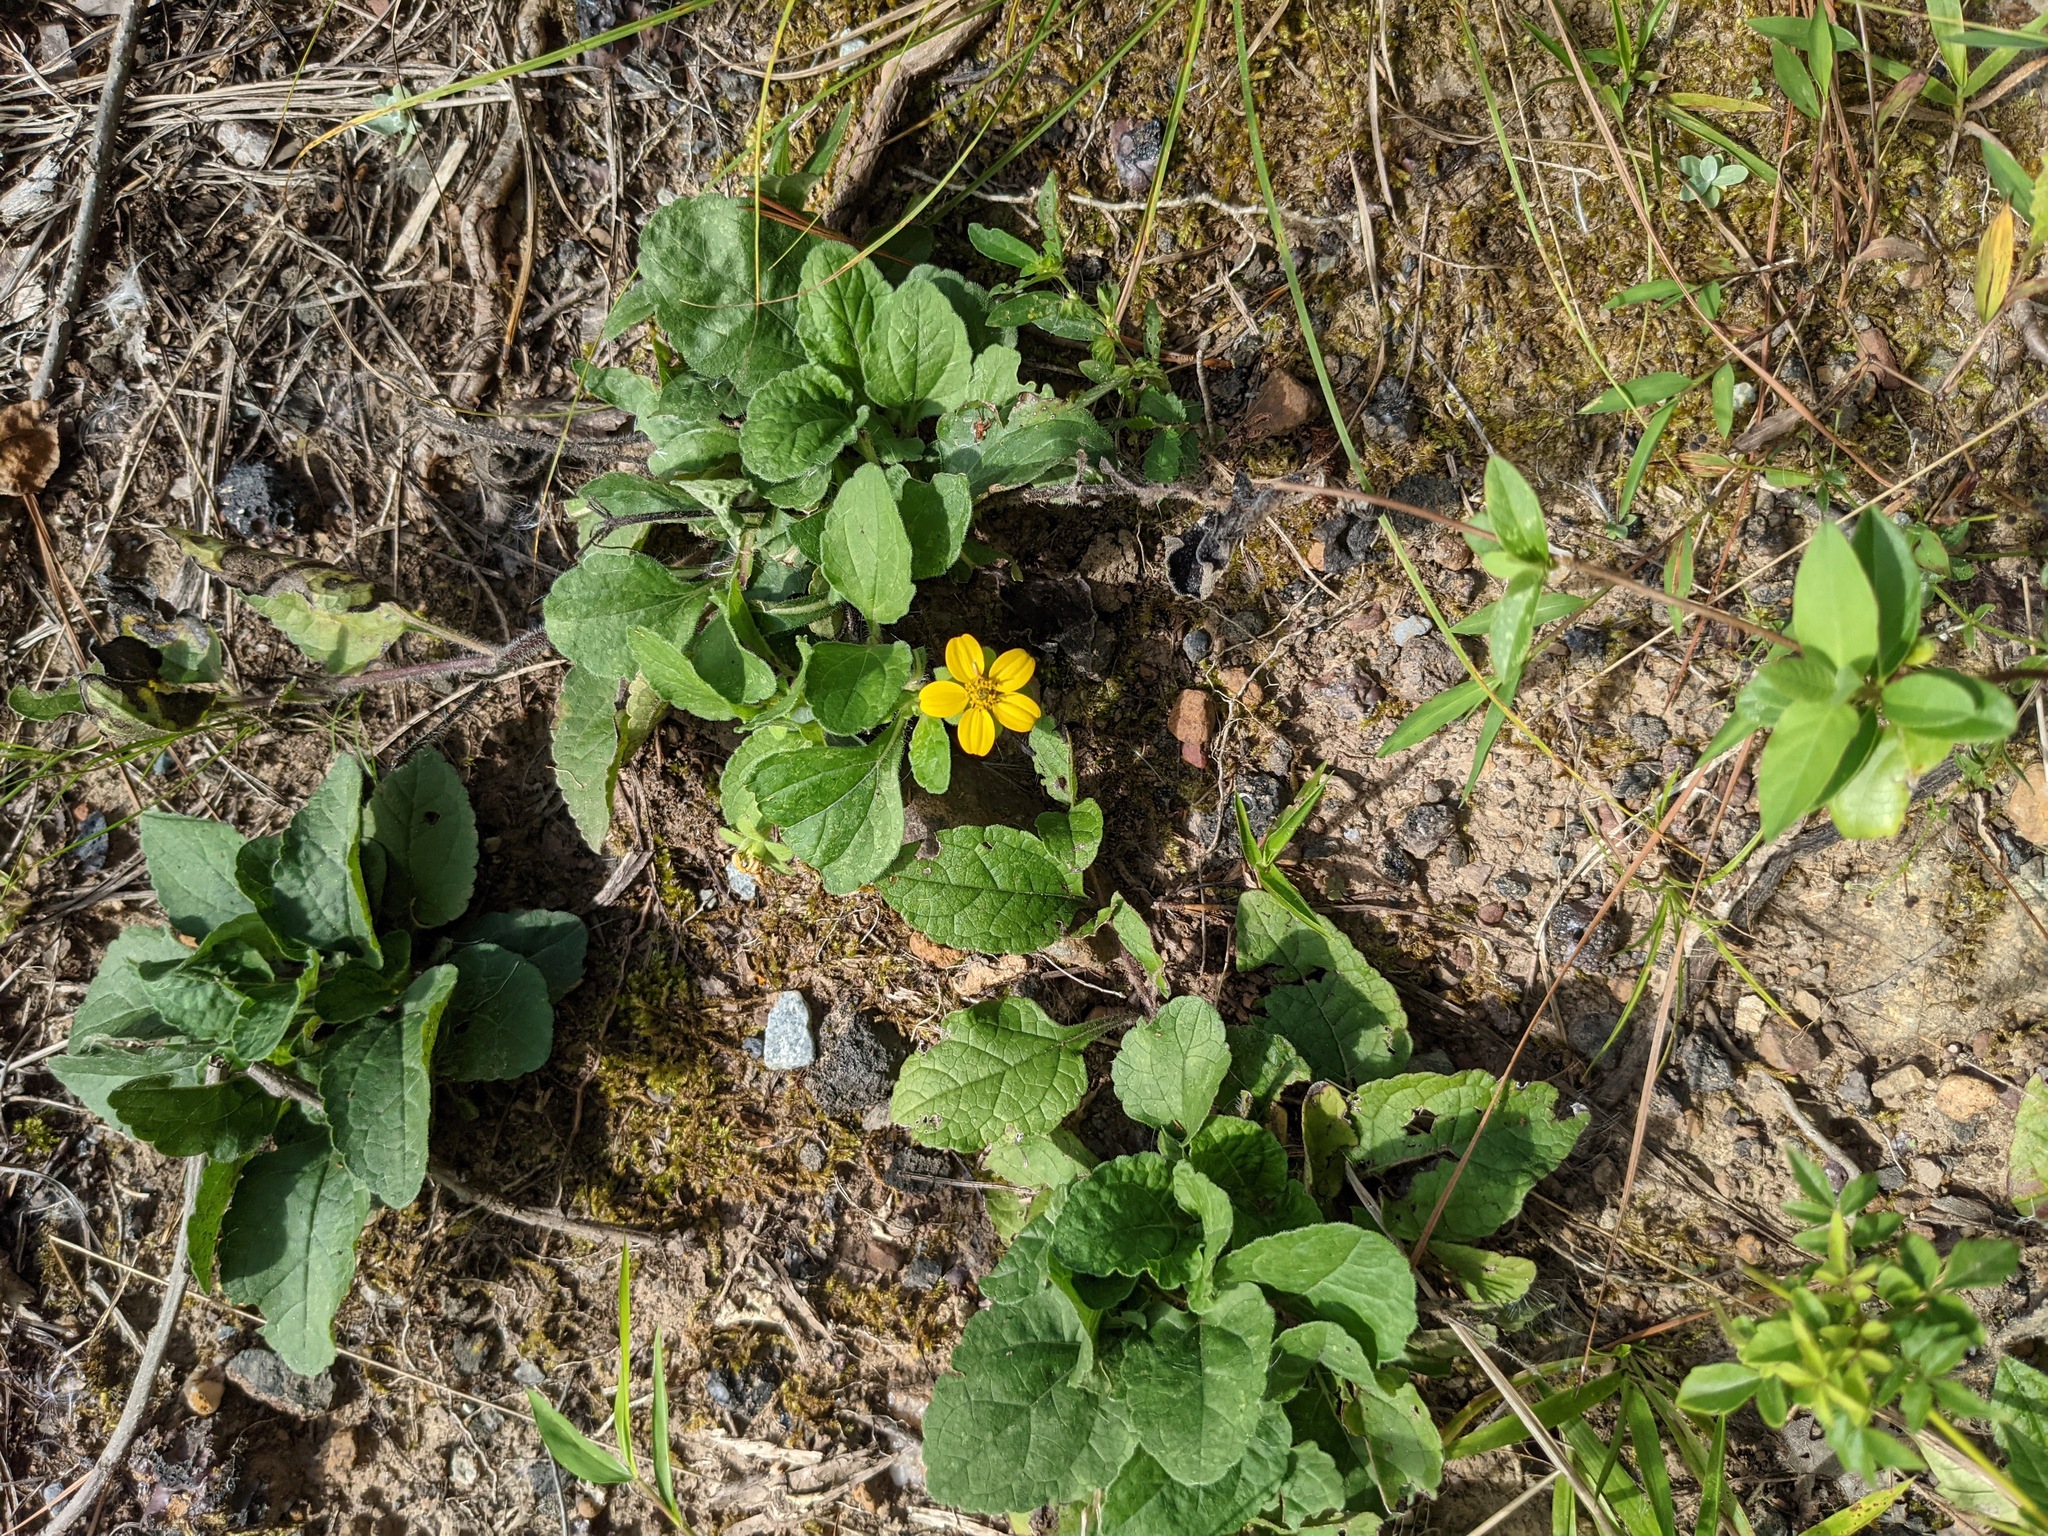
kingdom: Plantae
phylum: Tracheophyta
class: Magnoliopsida
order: Asterales
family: Asteraceae
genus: Chrysogonum
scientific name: Chrysogonum virginianum
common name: Golden-knee
